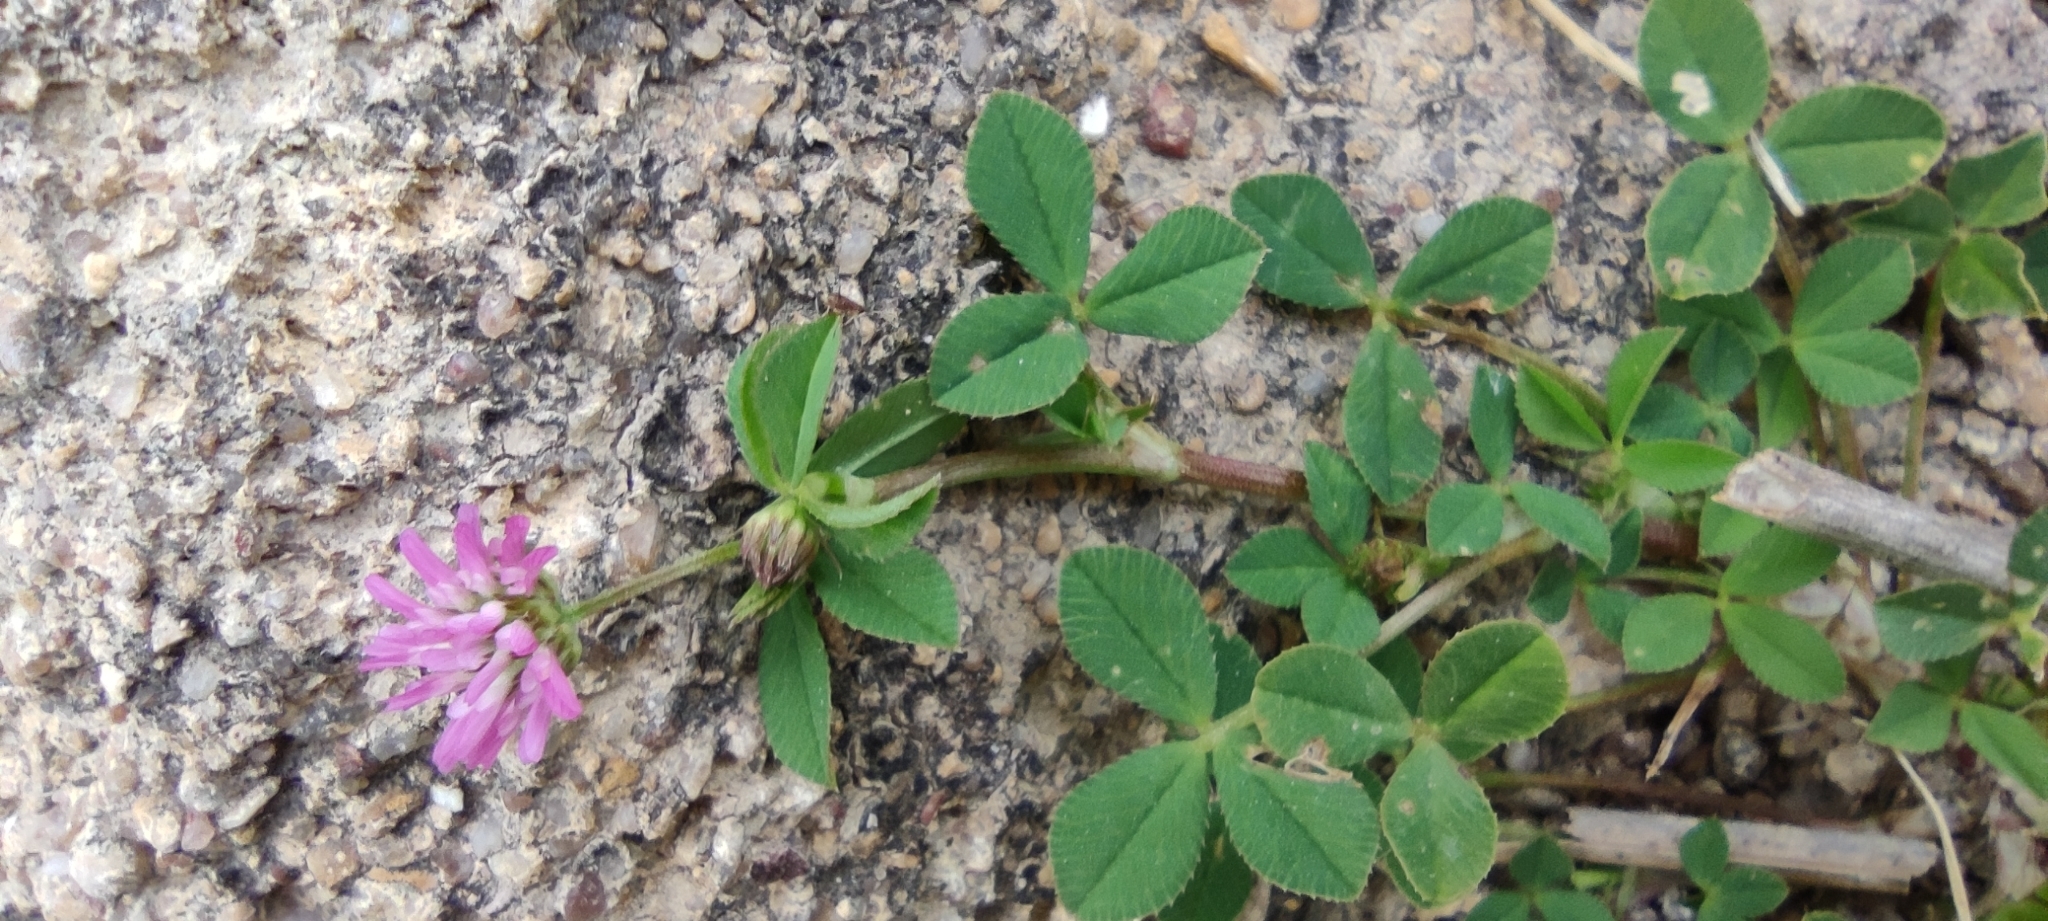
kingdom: Plantae
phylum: Tracheophyta
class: Magnoliopsida
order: Fabales
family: Fabaceae
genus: Trifolium
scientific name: Trifolium resupinatum
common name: Reversed clover
